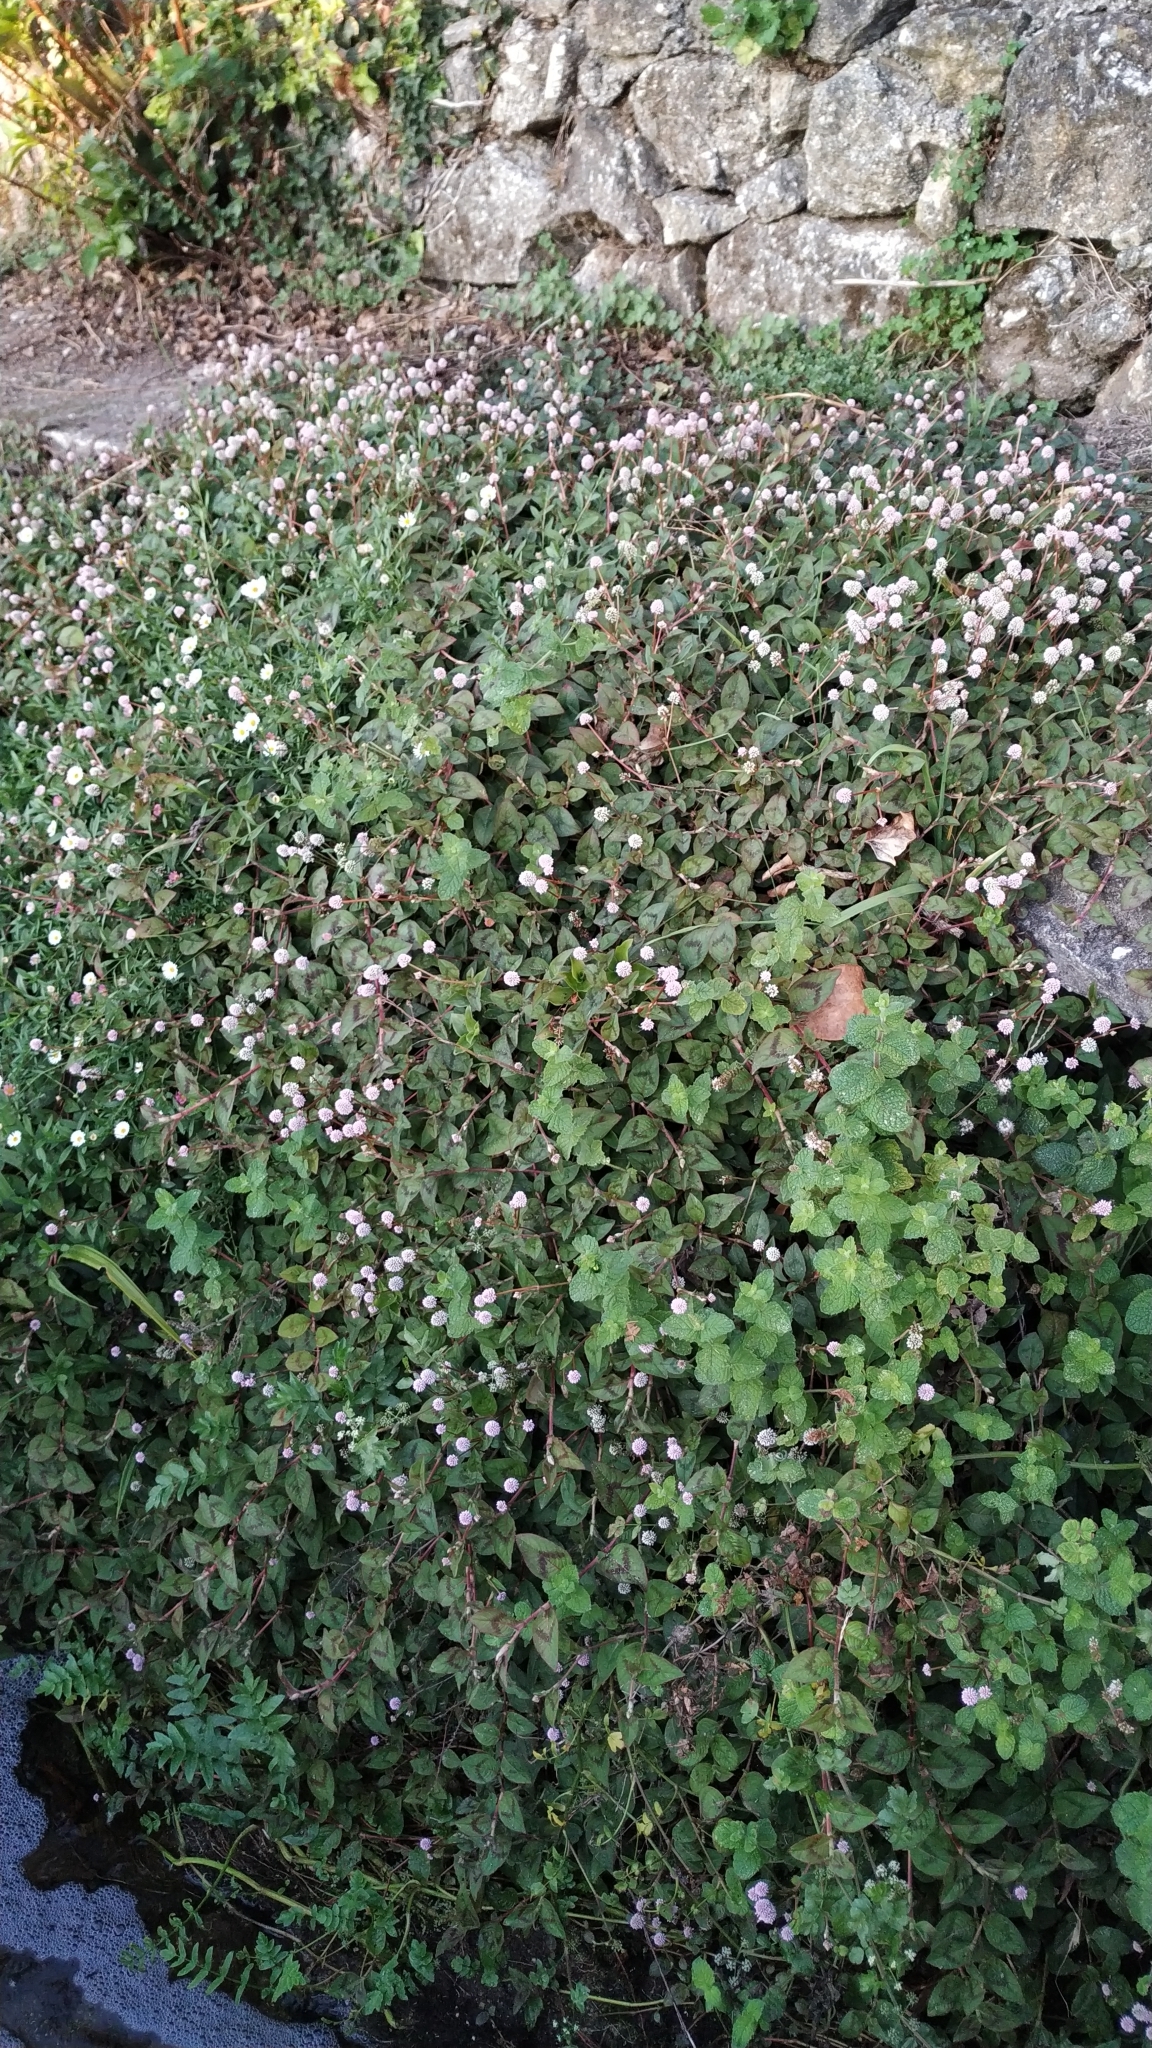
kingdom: Plantae
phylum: Tracheophyta
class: Magnoliopsida
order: Caryophyllales
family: Polygonaceae
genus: Persicaria
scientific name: Persicaria capitata
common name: Pinkhead smartweed
